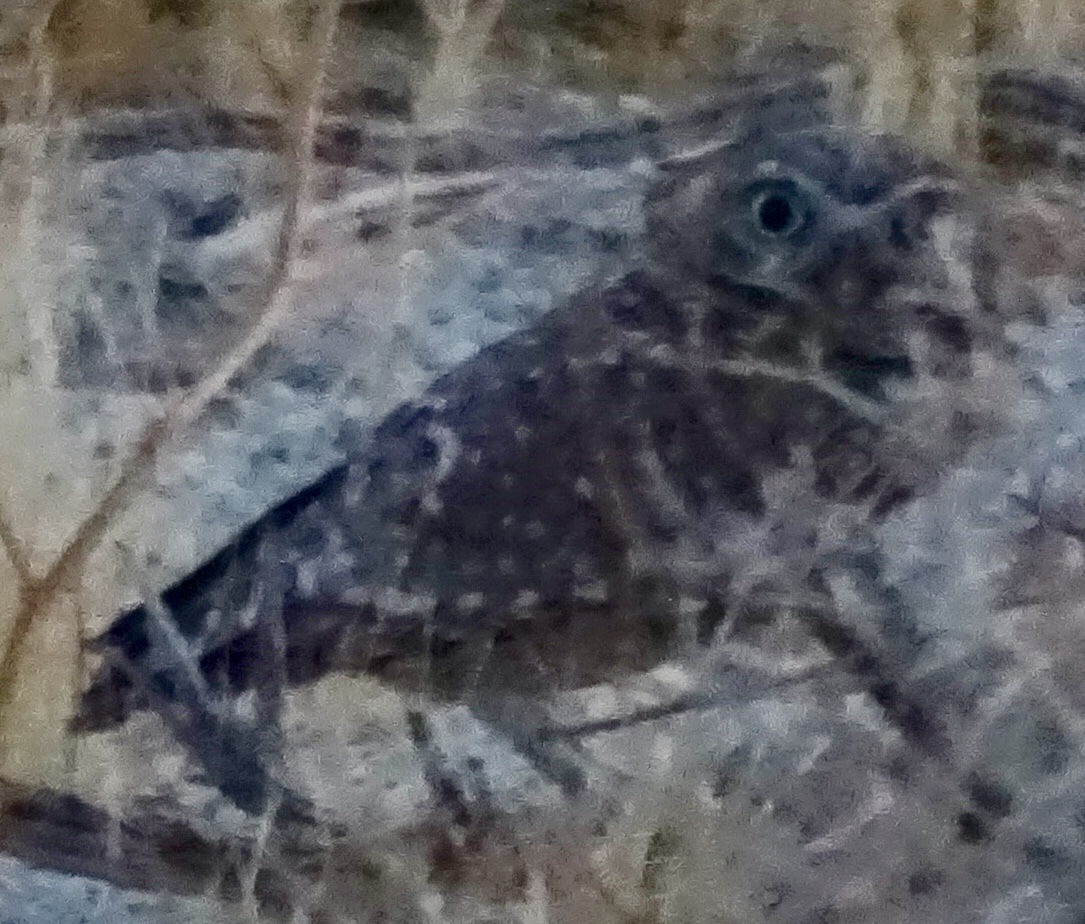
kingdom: Animalia
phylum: Chordata
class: Aves
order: Strigiformes
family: Strigidae
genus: Athene
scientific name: Athene cunicularia
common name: Burrowing owl
